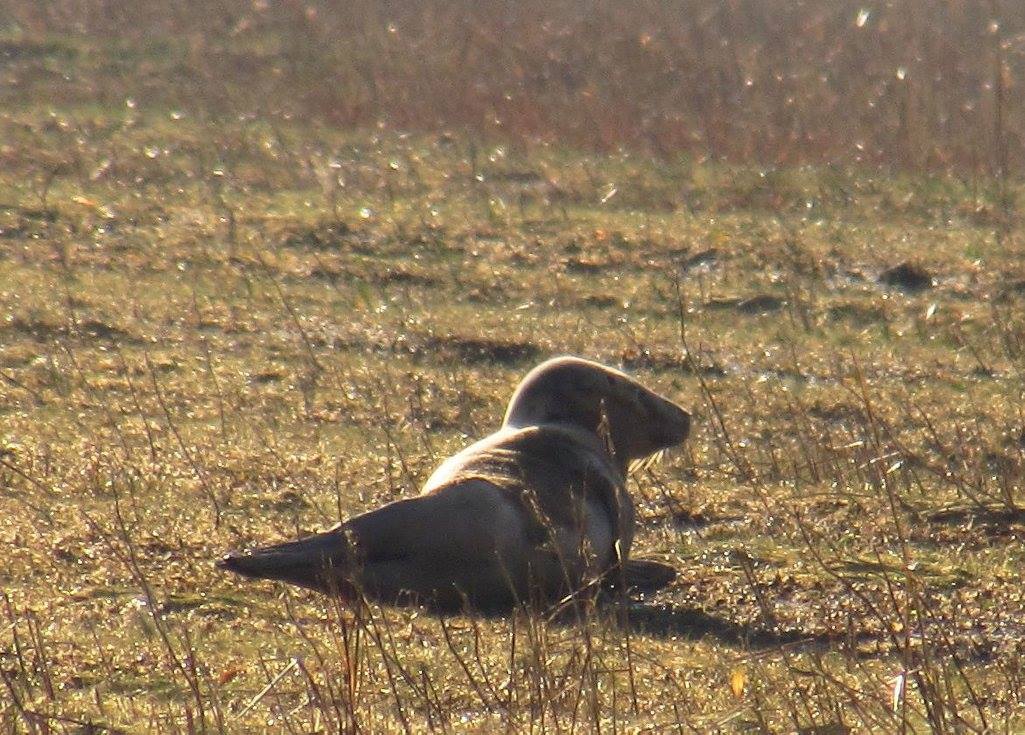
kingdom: Animalia
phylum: Chordata
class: Mammalia
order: Carnivora
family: Phocidae
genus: Halichoerus
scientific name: Halichoerus grypus
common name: Grey seal
